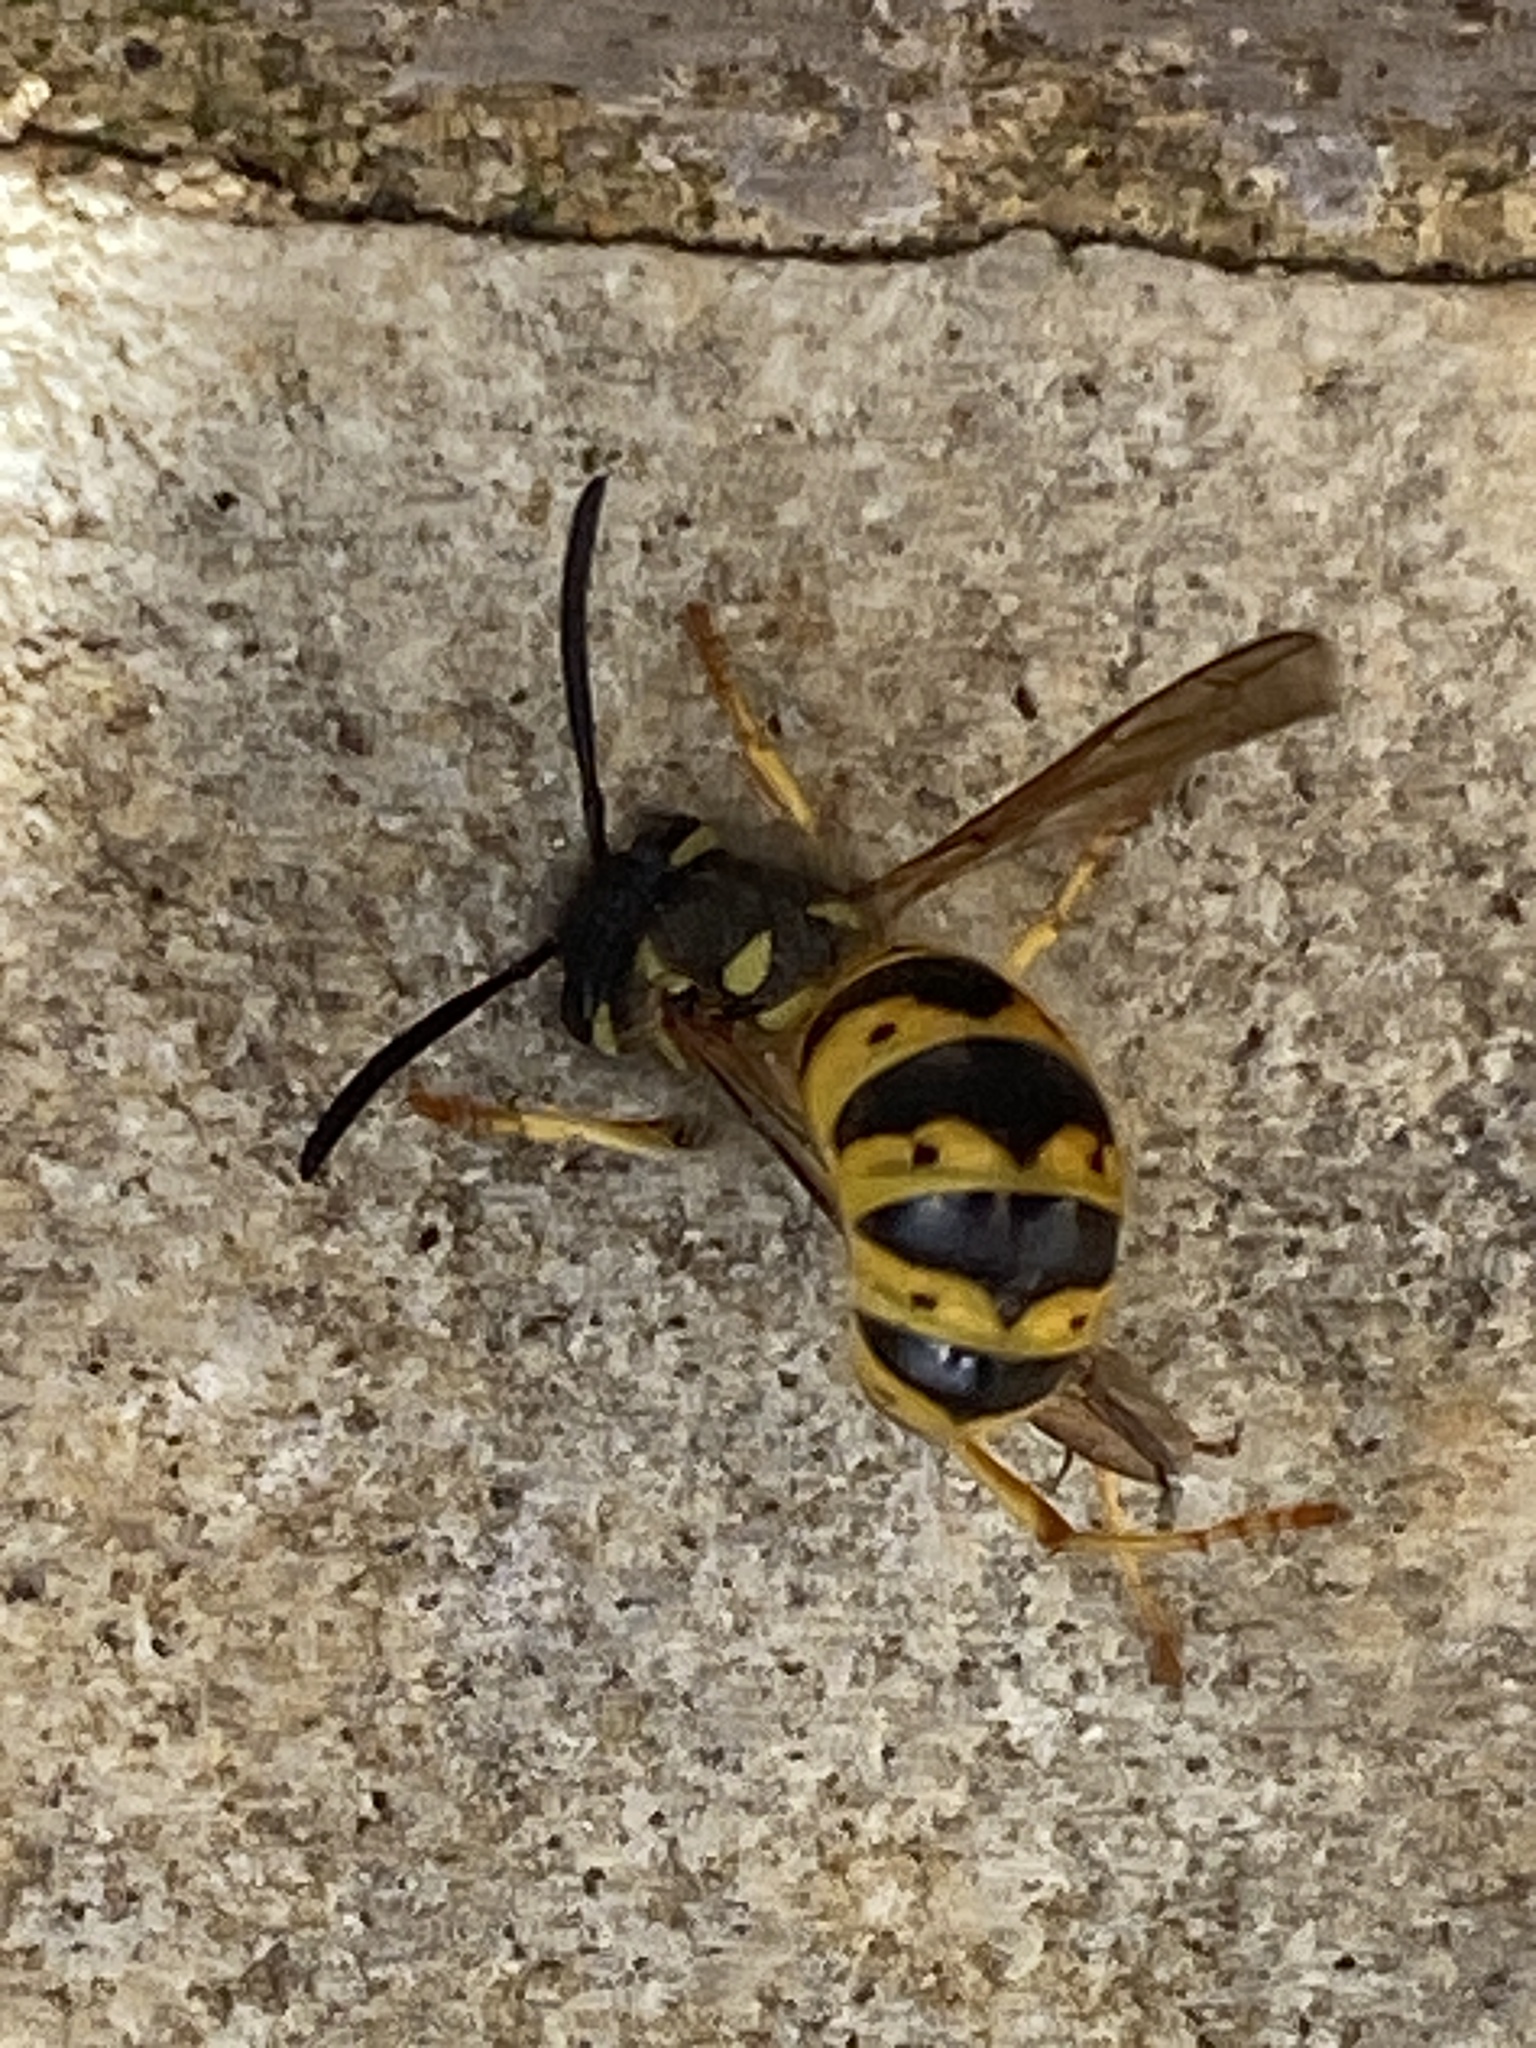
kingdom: Animalia
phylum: Arthropoda
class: Insecta
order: Hymenoptera
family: Vespidae
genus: Vespula
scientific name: Vespula germanica
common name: German wasp
